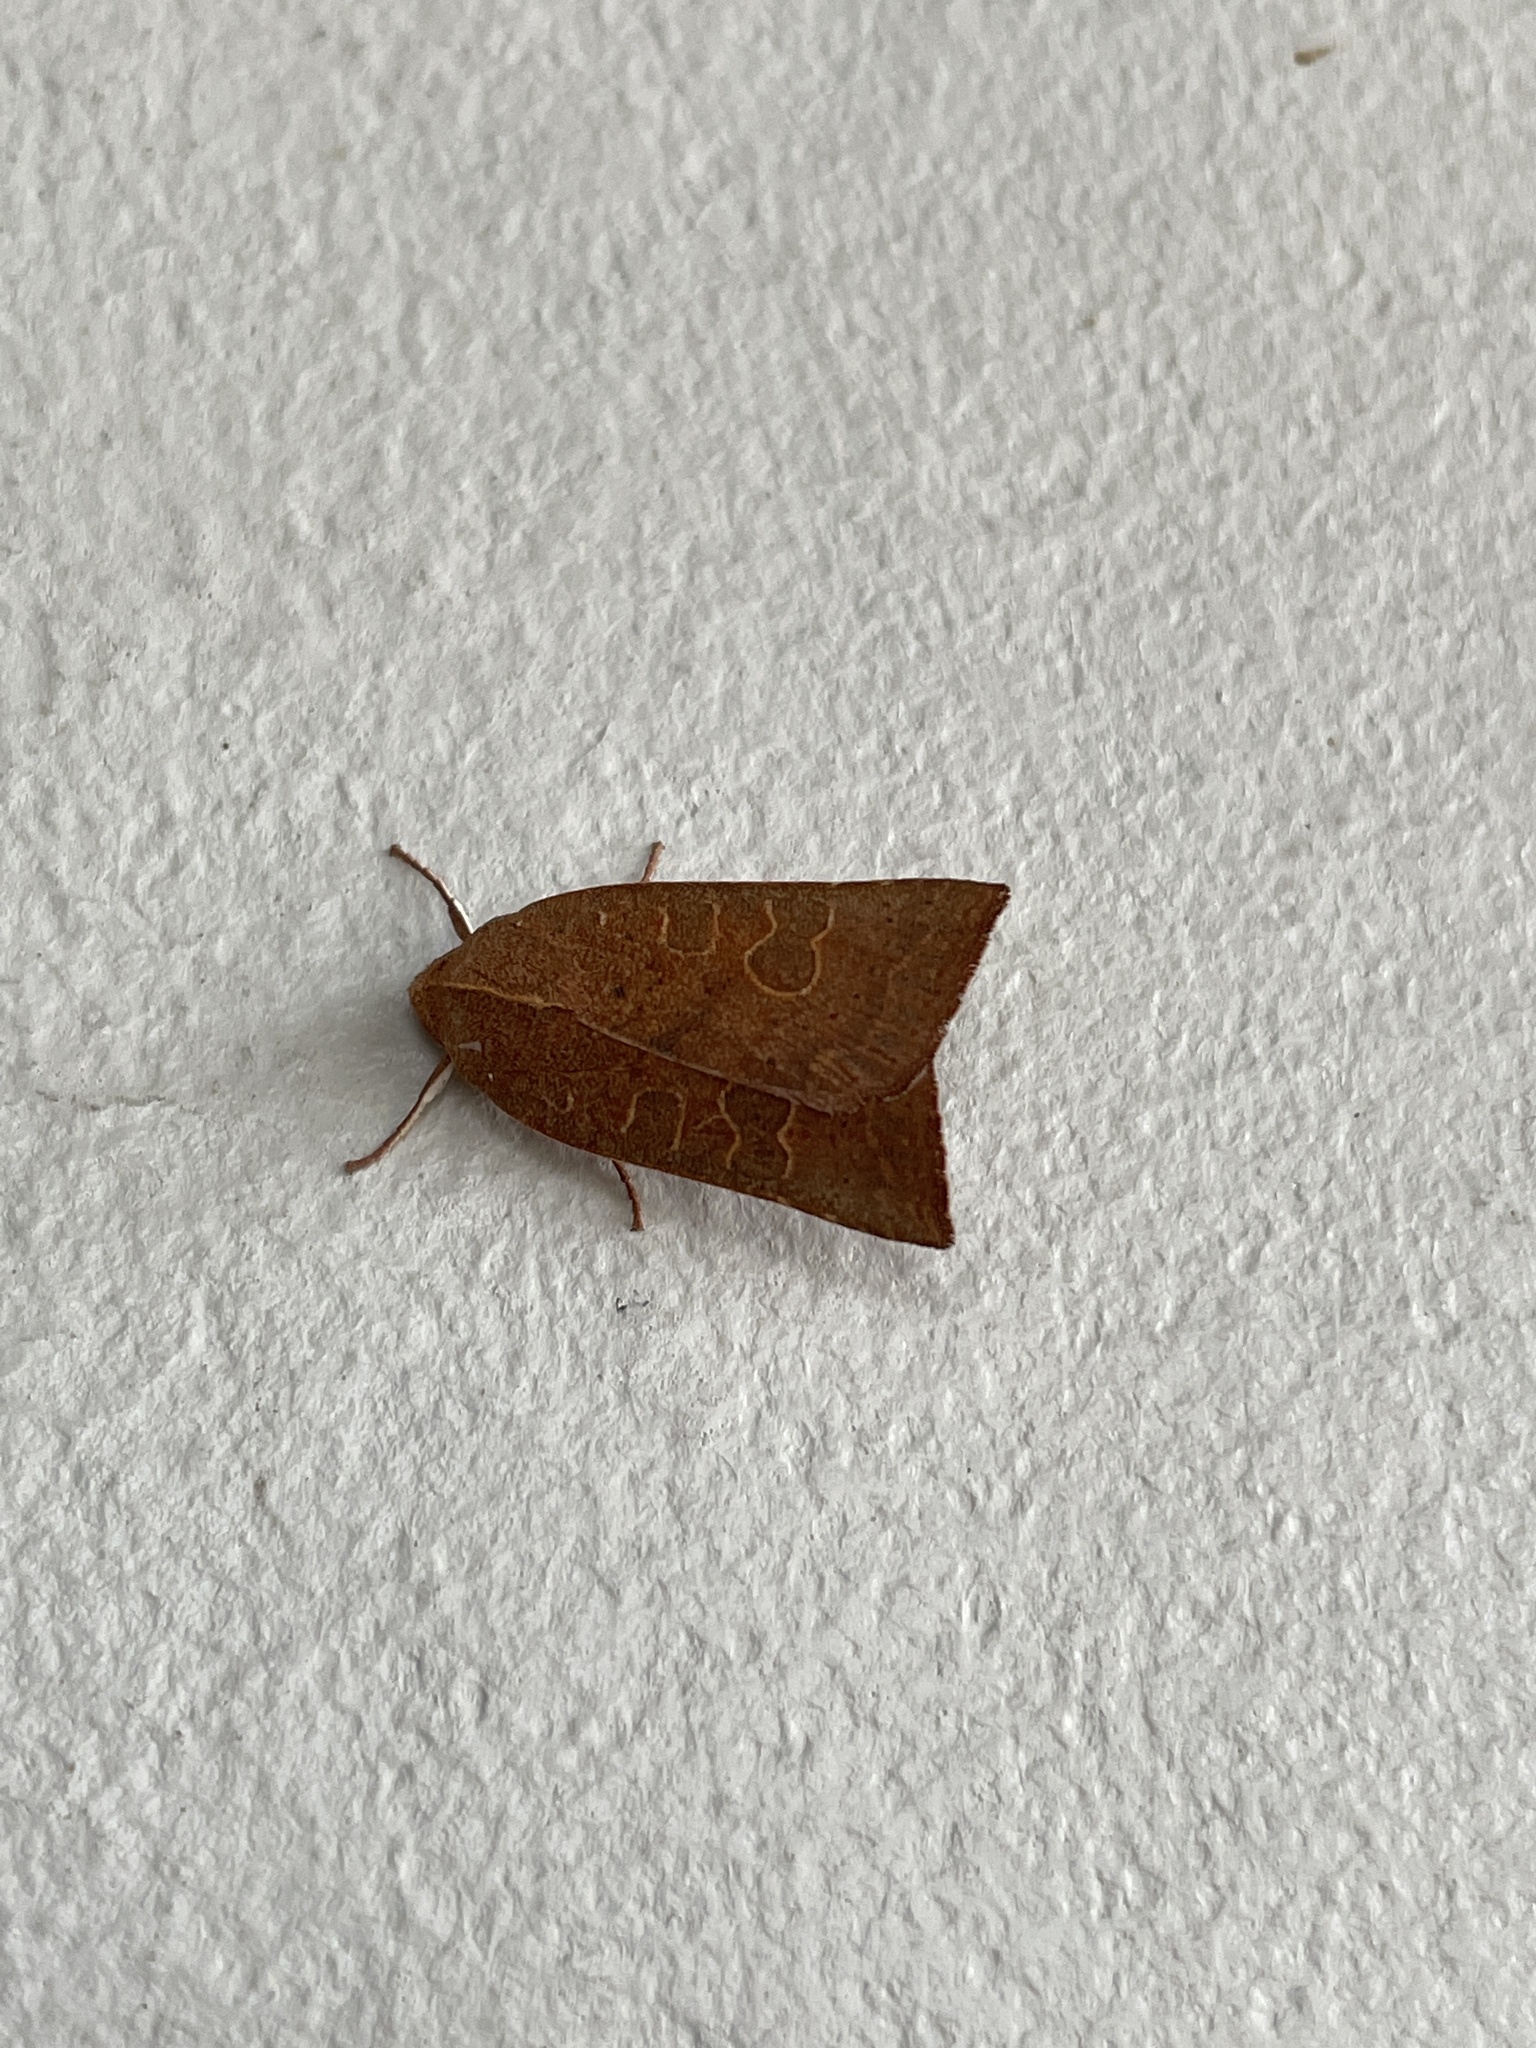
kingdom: Animalia
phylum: Arthropoda
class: Insecta
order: Lepidoptera
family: Noctuidae
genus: Xystopeplus
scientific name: Xystopeplus rufago
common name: Red-winged sallow
